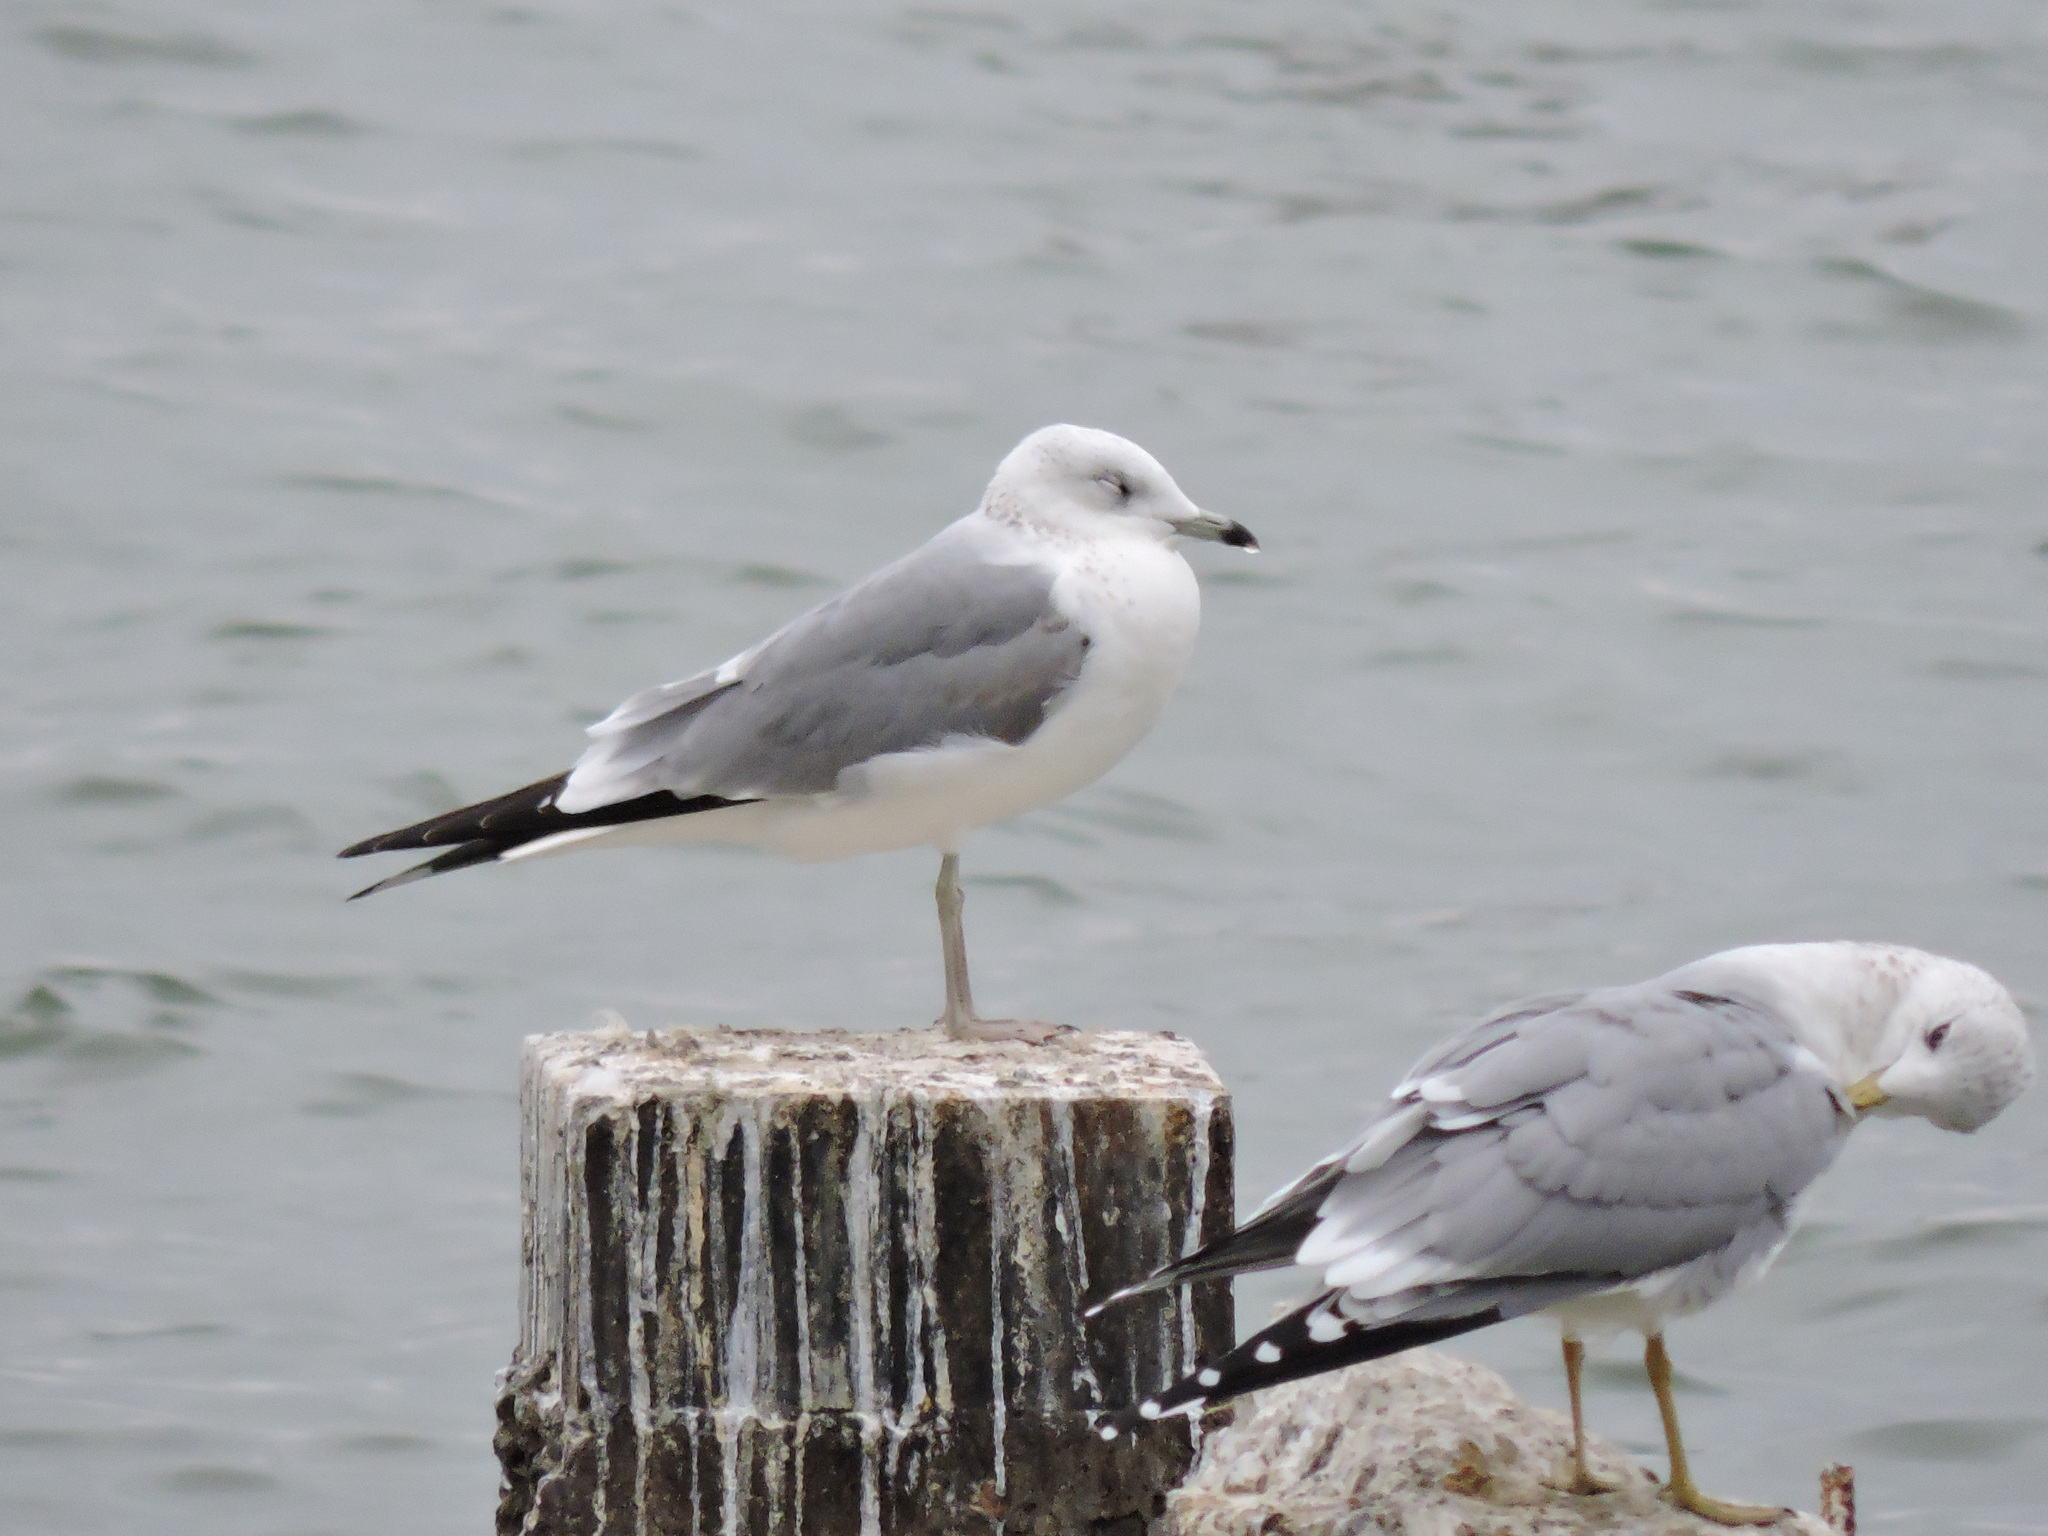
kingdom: Animalia
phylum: Chordata
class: Aves
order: Charadriiformes
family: Laridae
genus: Larus
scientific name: Larus canus
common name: Mew gull
